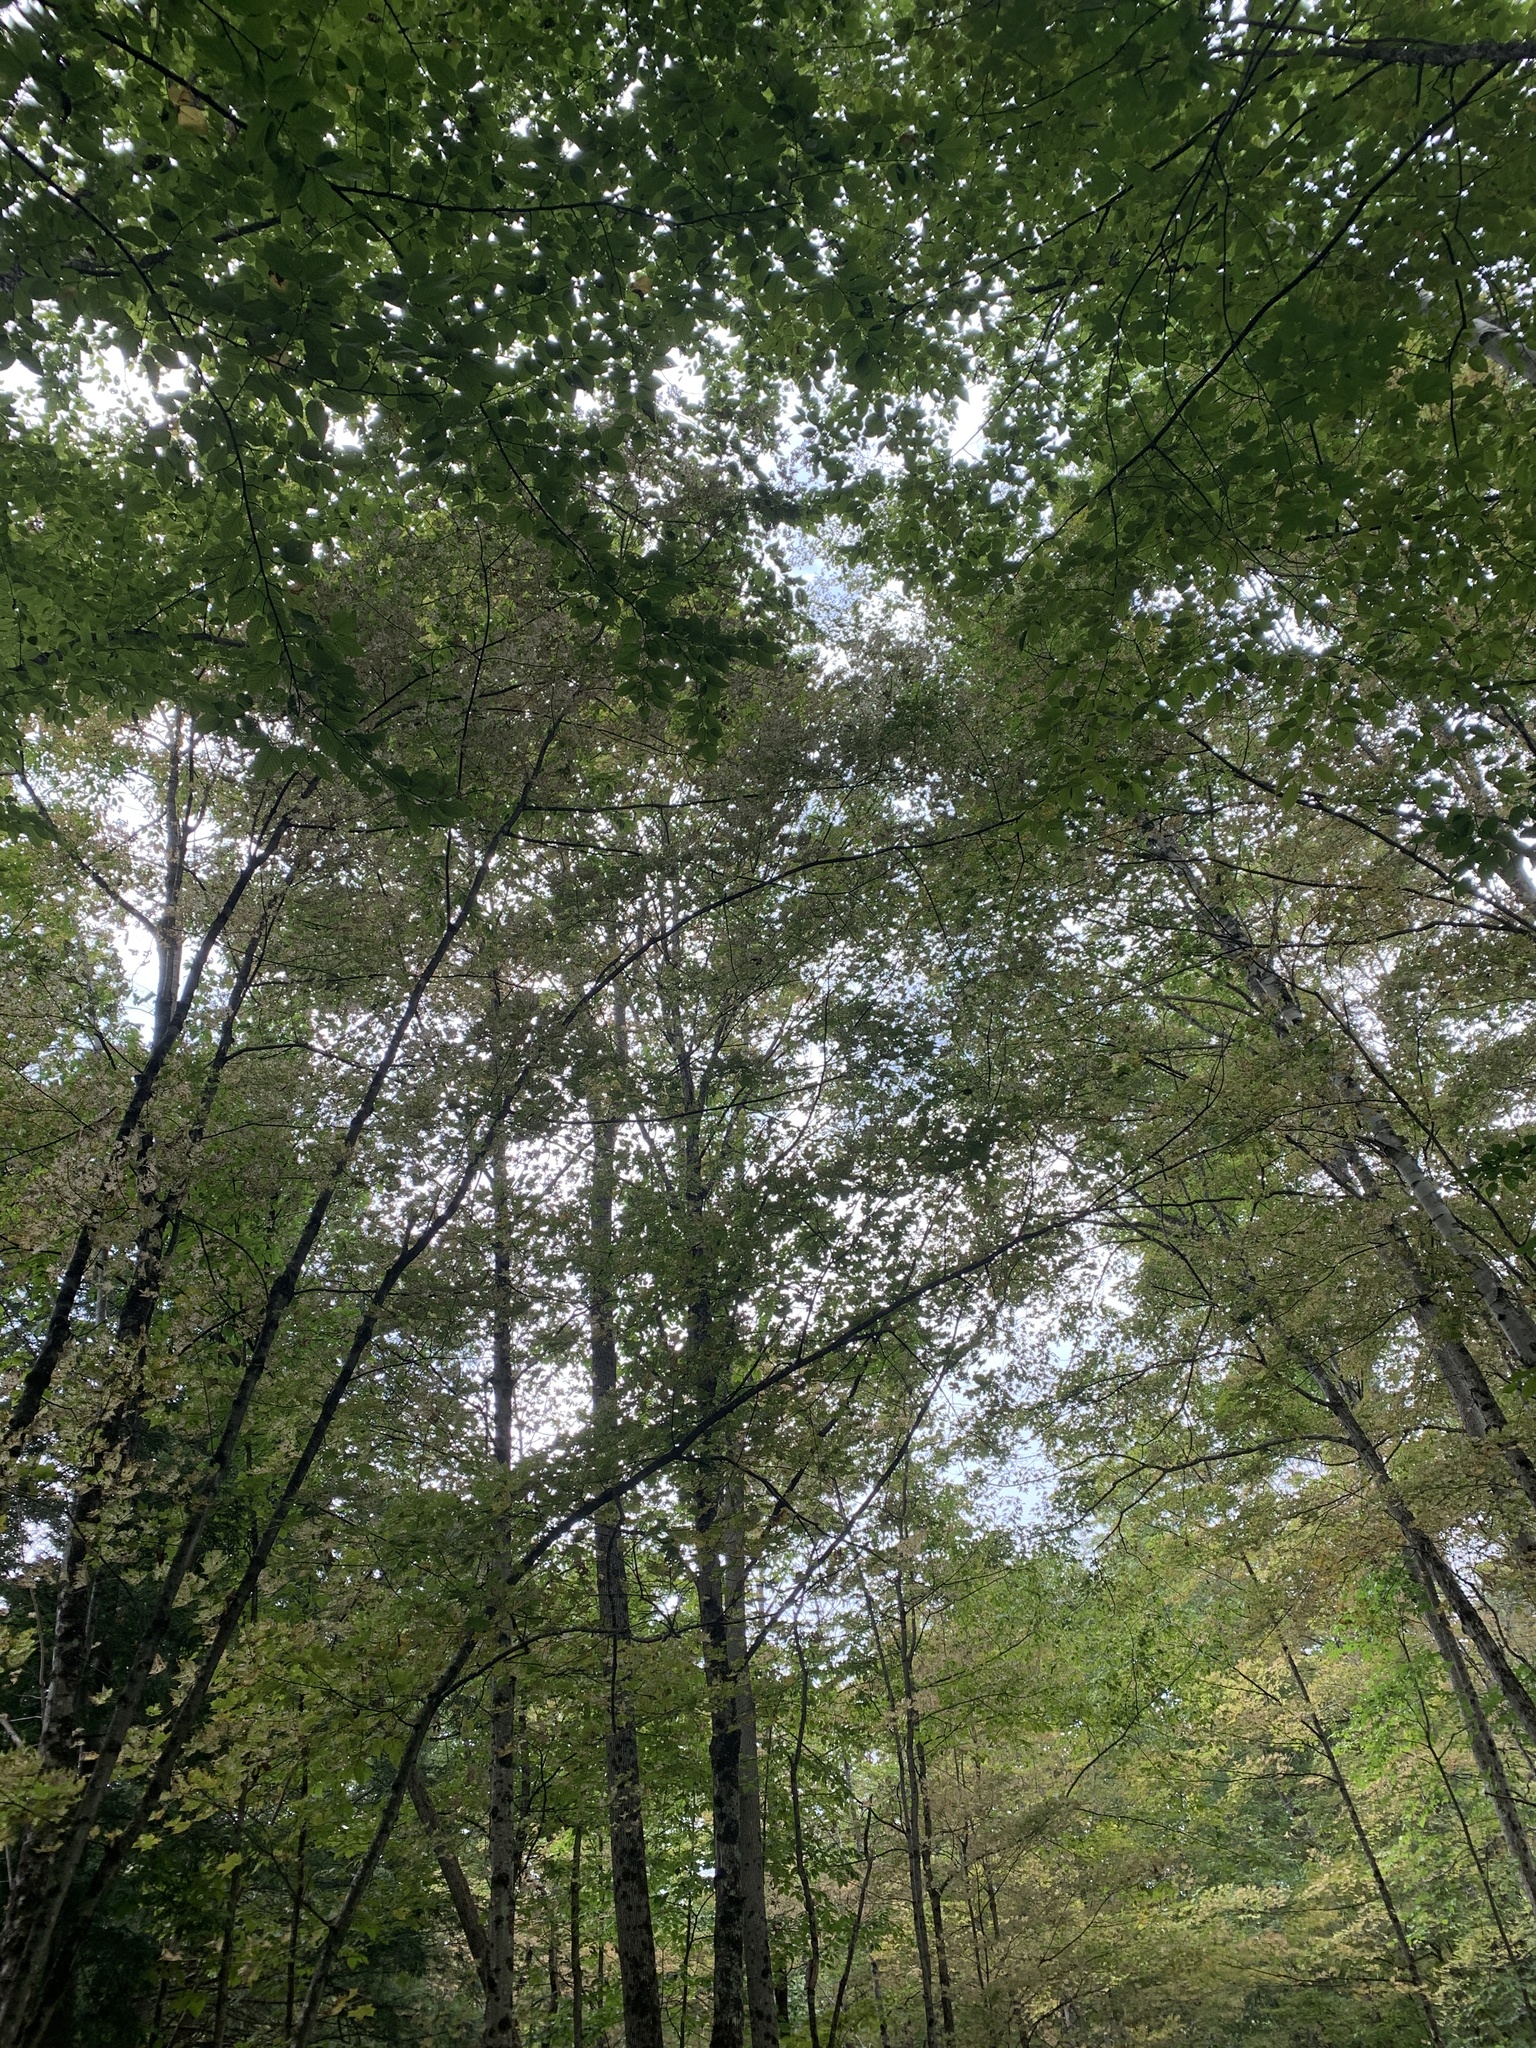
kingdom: Animalia
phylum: Arthropoda
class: Insecta
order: Lepidoptera
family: Incurvariidae
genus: Paraclemensia
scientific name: Paraclemensia acerifoliella
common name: Maple leafcutter
